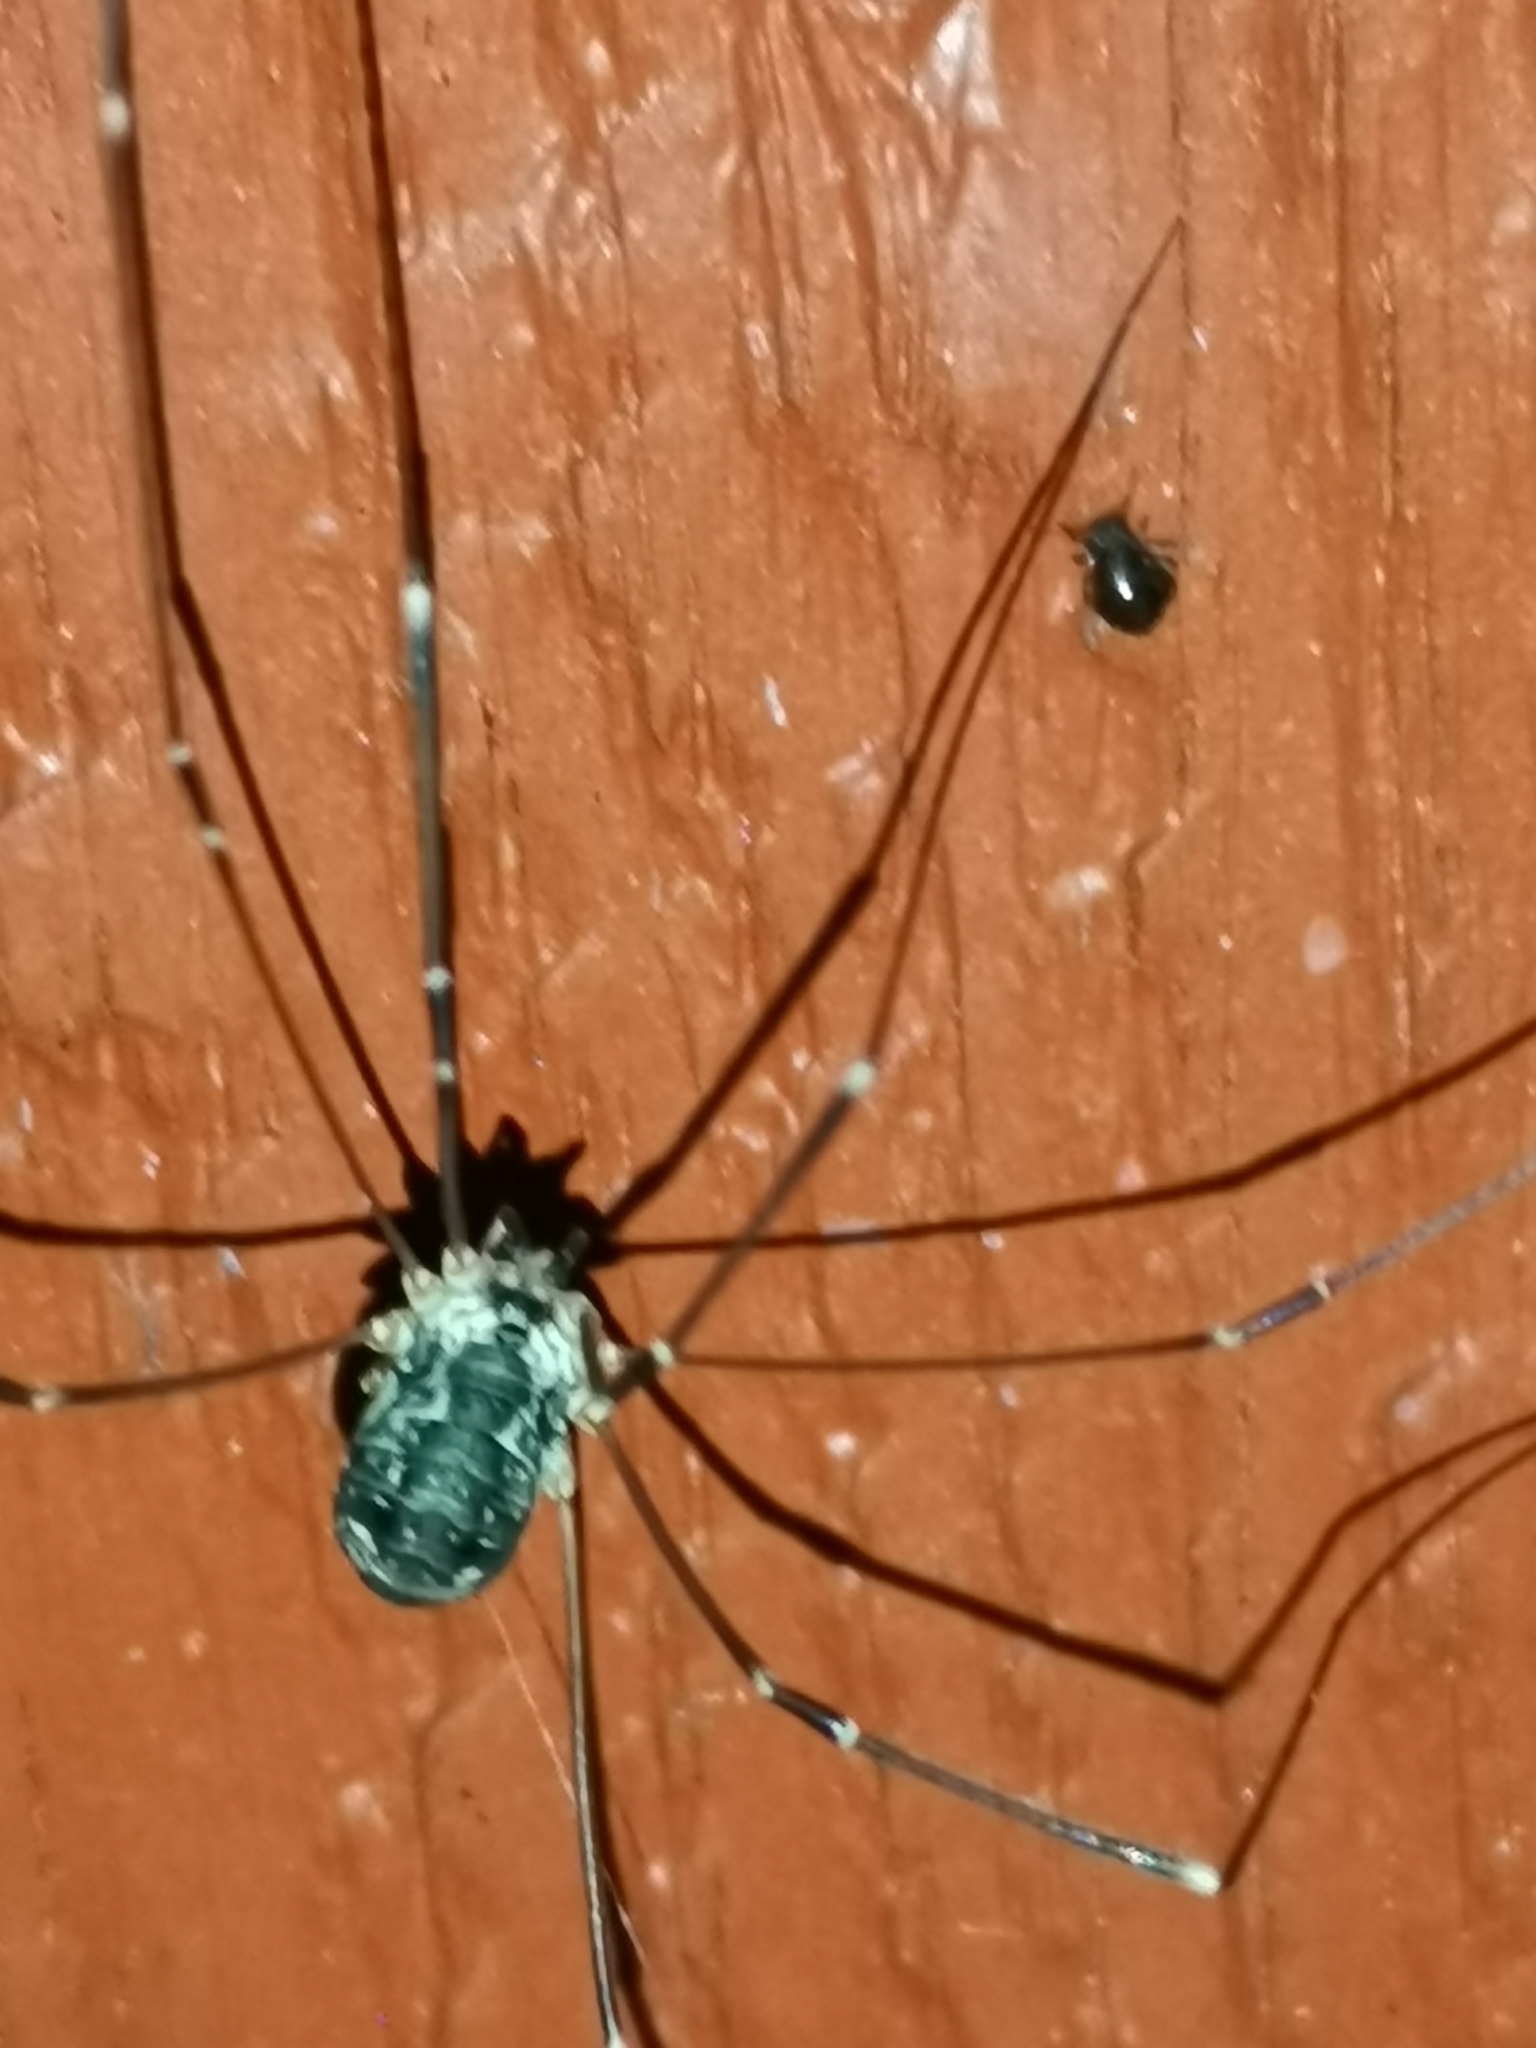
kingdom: Animalia
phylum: Arthropoda
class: Arachnida
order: Opiliones
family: Sclerosomatidae
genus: Leiobunum
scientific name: Leiobunum gracile
